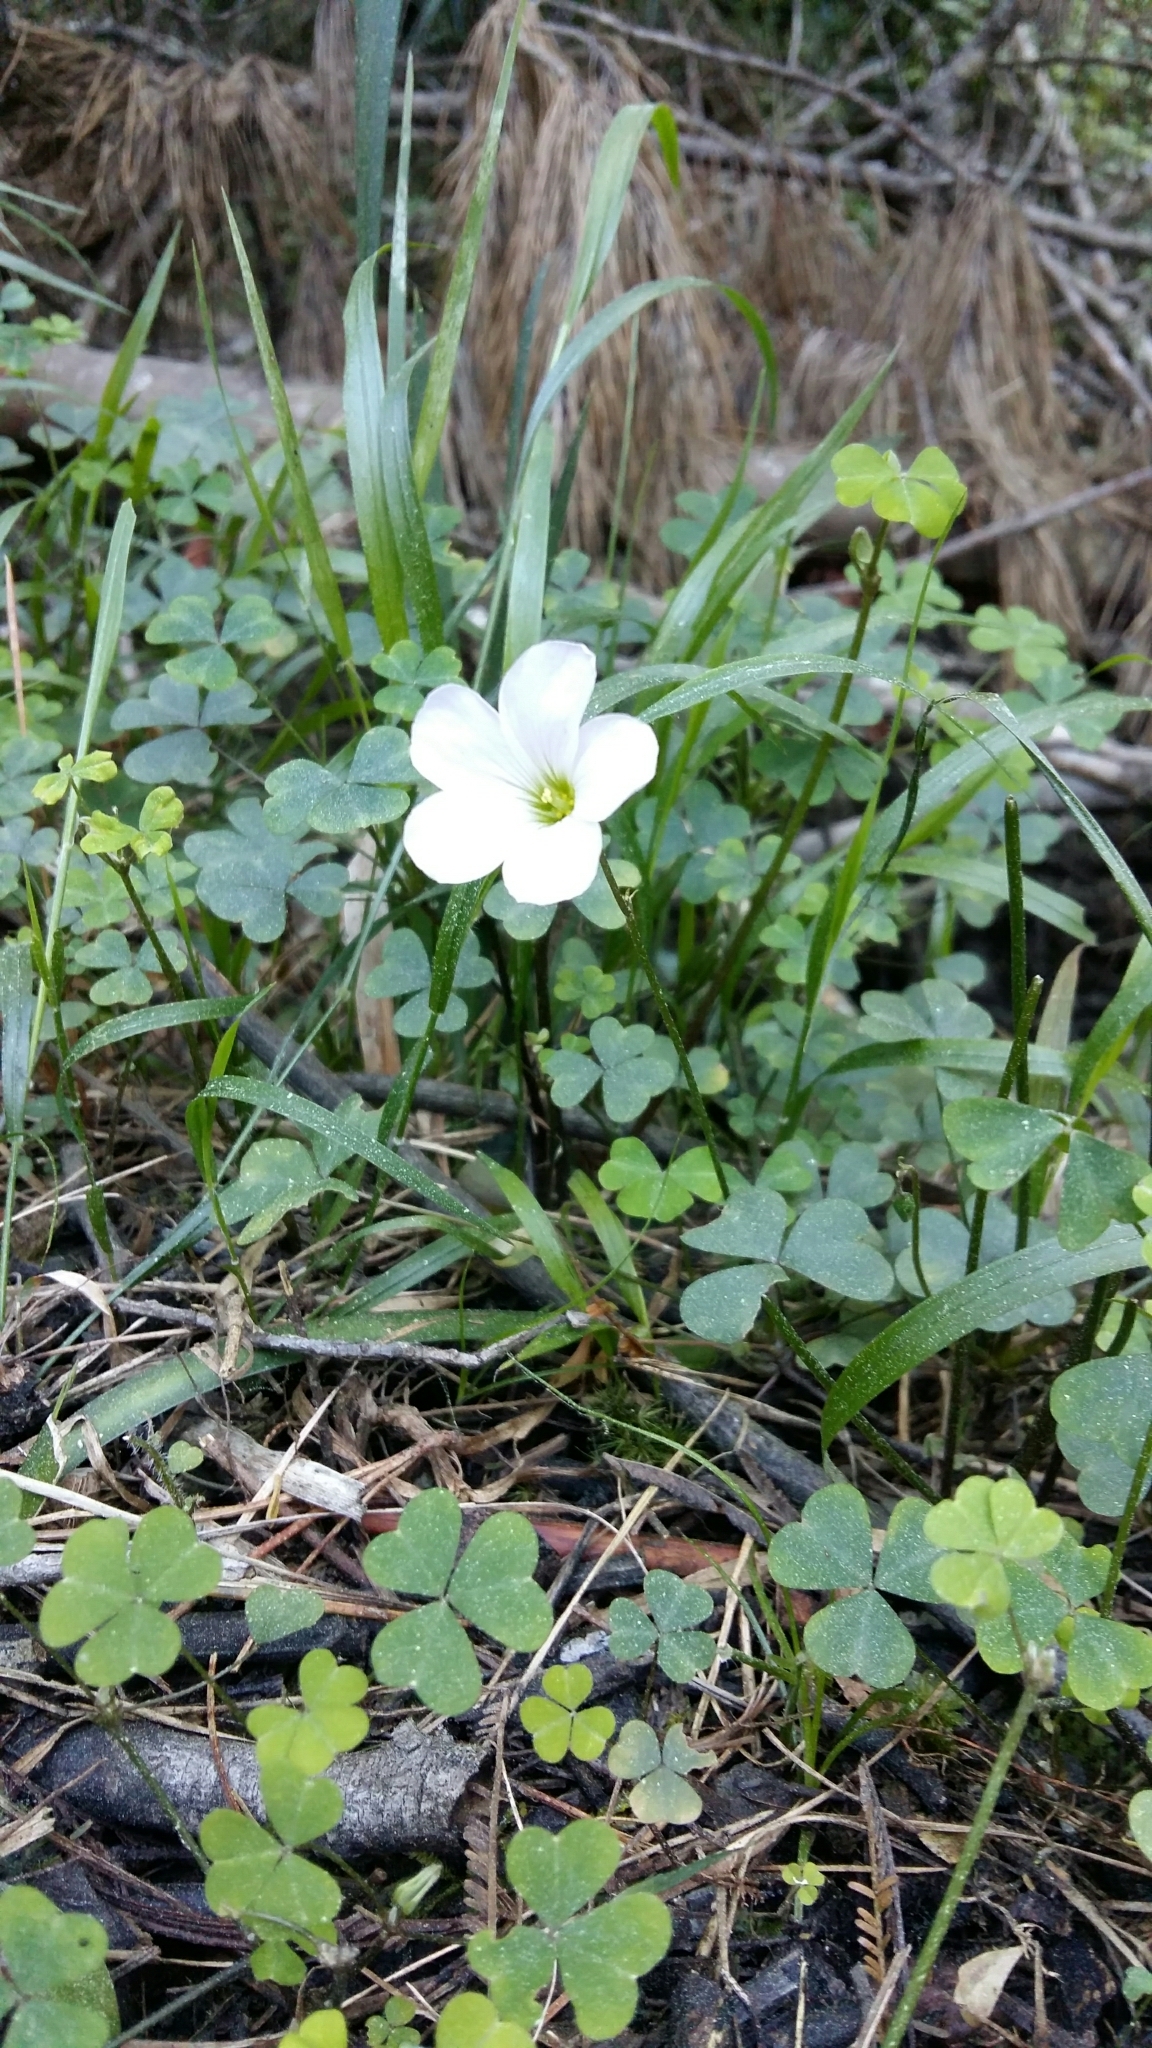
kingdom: Plantae
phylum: Tracheophyta
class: Magnoliopsida
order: Oxalidales
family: Oxalidaceae
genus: Oxalis
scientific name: Oxalis incarnata
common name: Pale pink-sorrel
